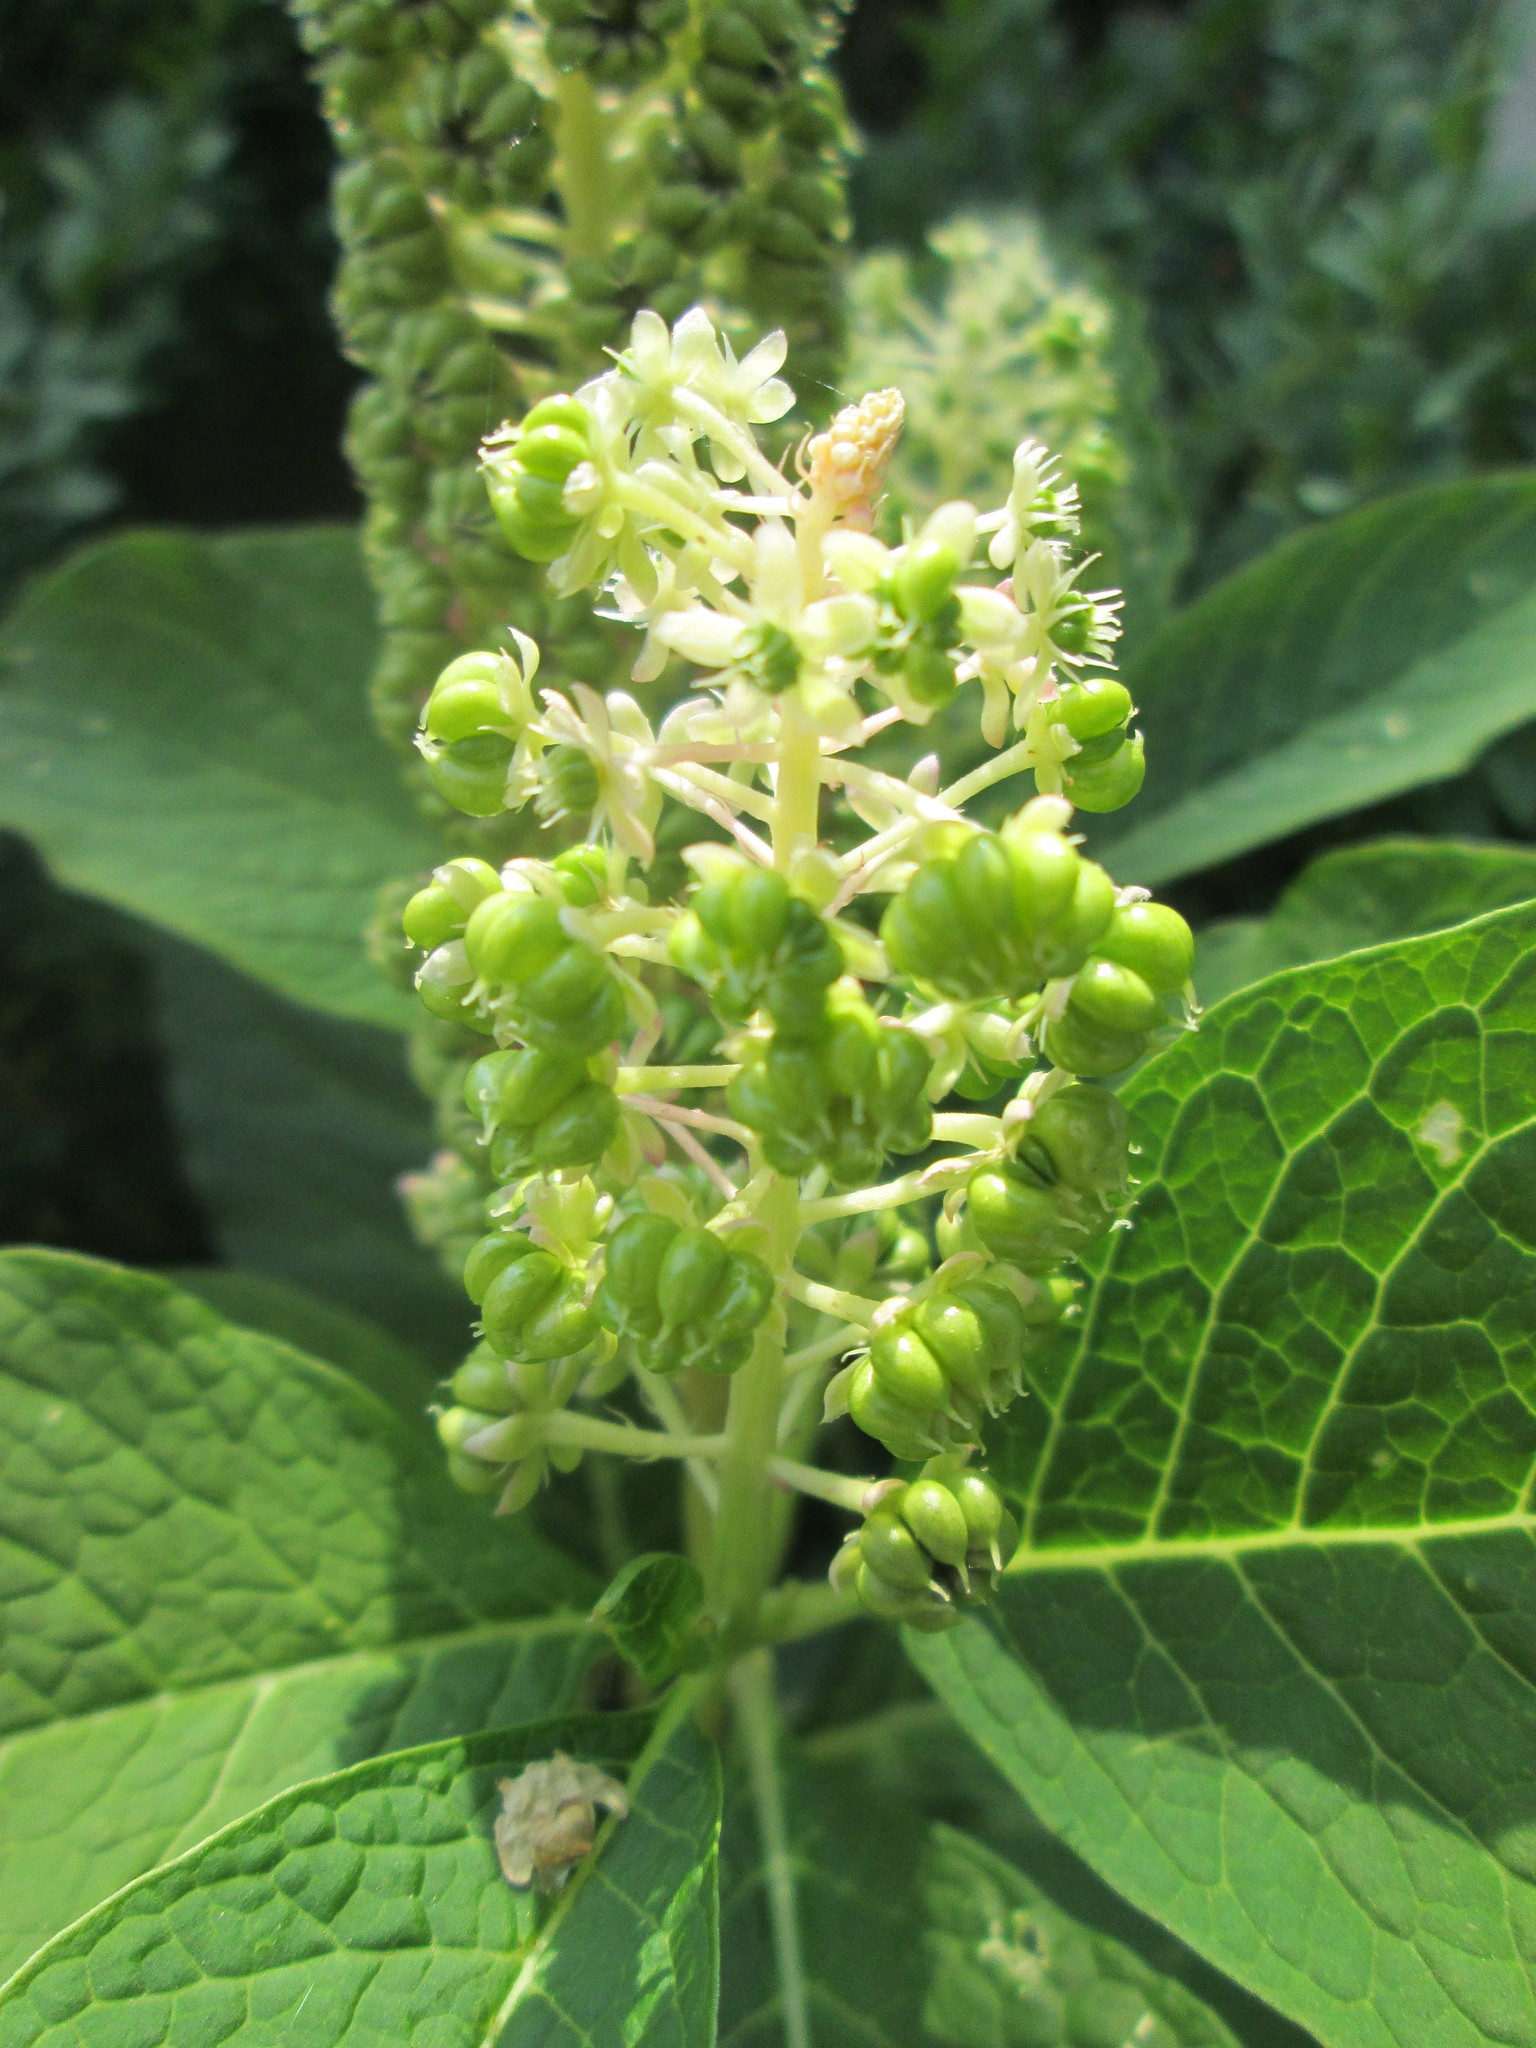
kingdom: Plantae
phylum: Tracheophyta
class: Magnoliopsida
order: Caryophyllales
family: Phytolaccaceae
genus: Phytolacca
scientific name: Phytolacca acinosa
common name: Indian pokeweed
